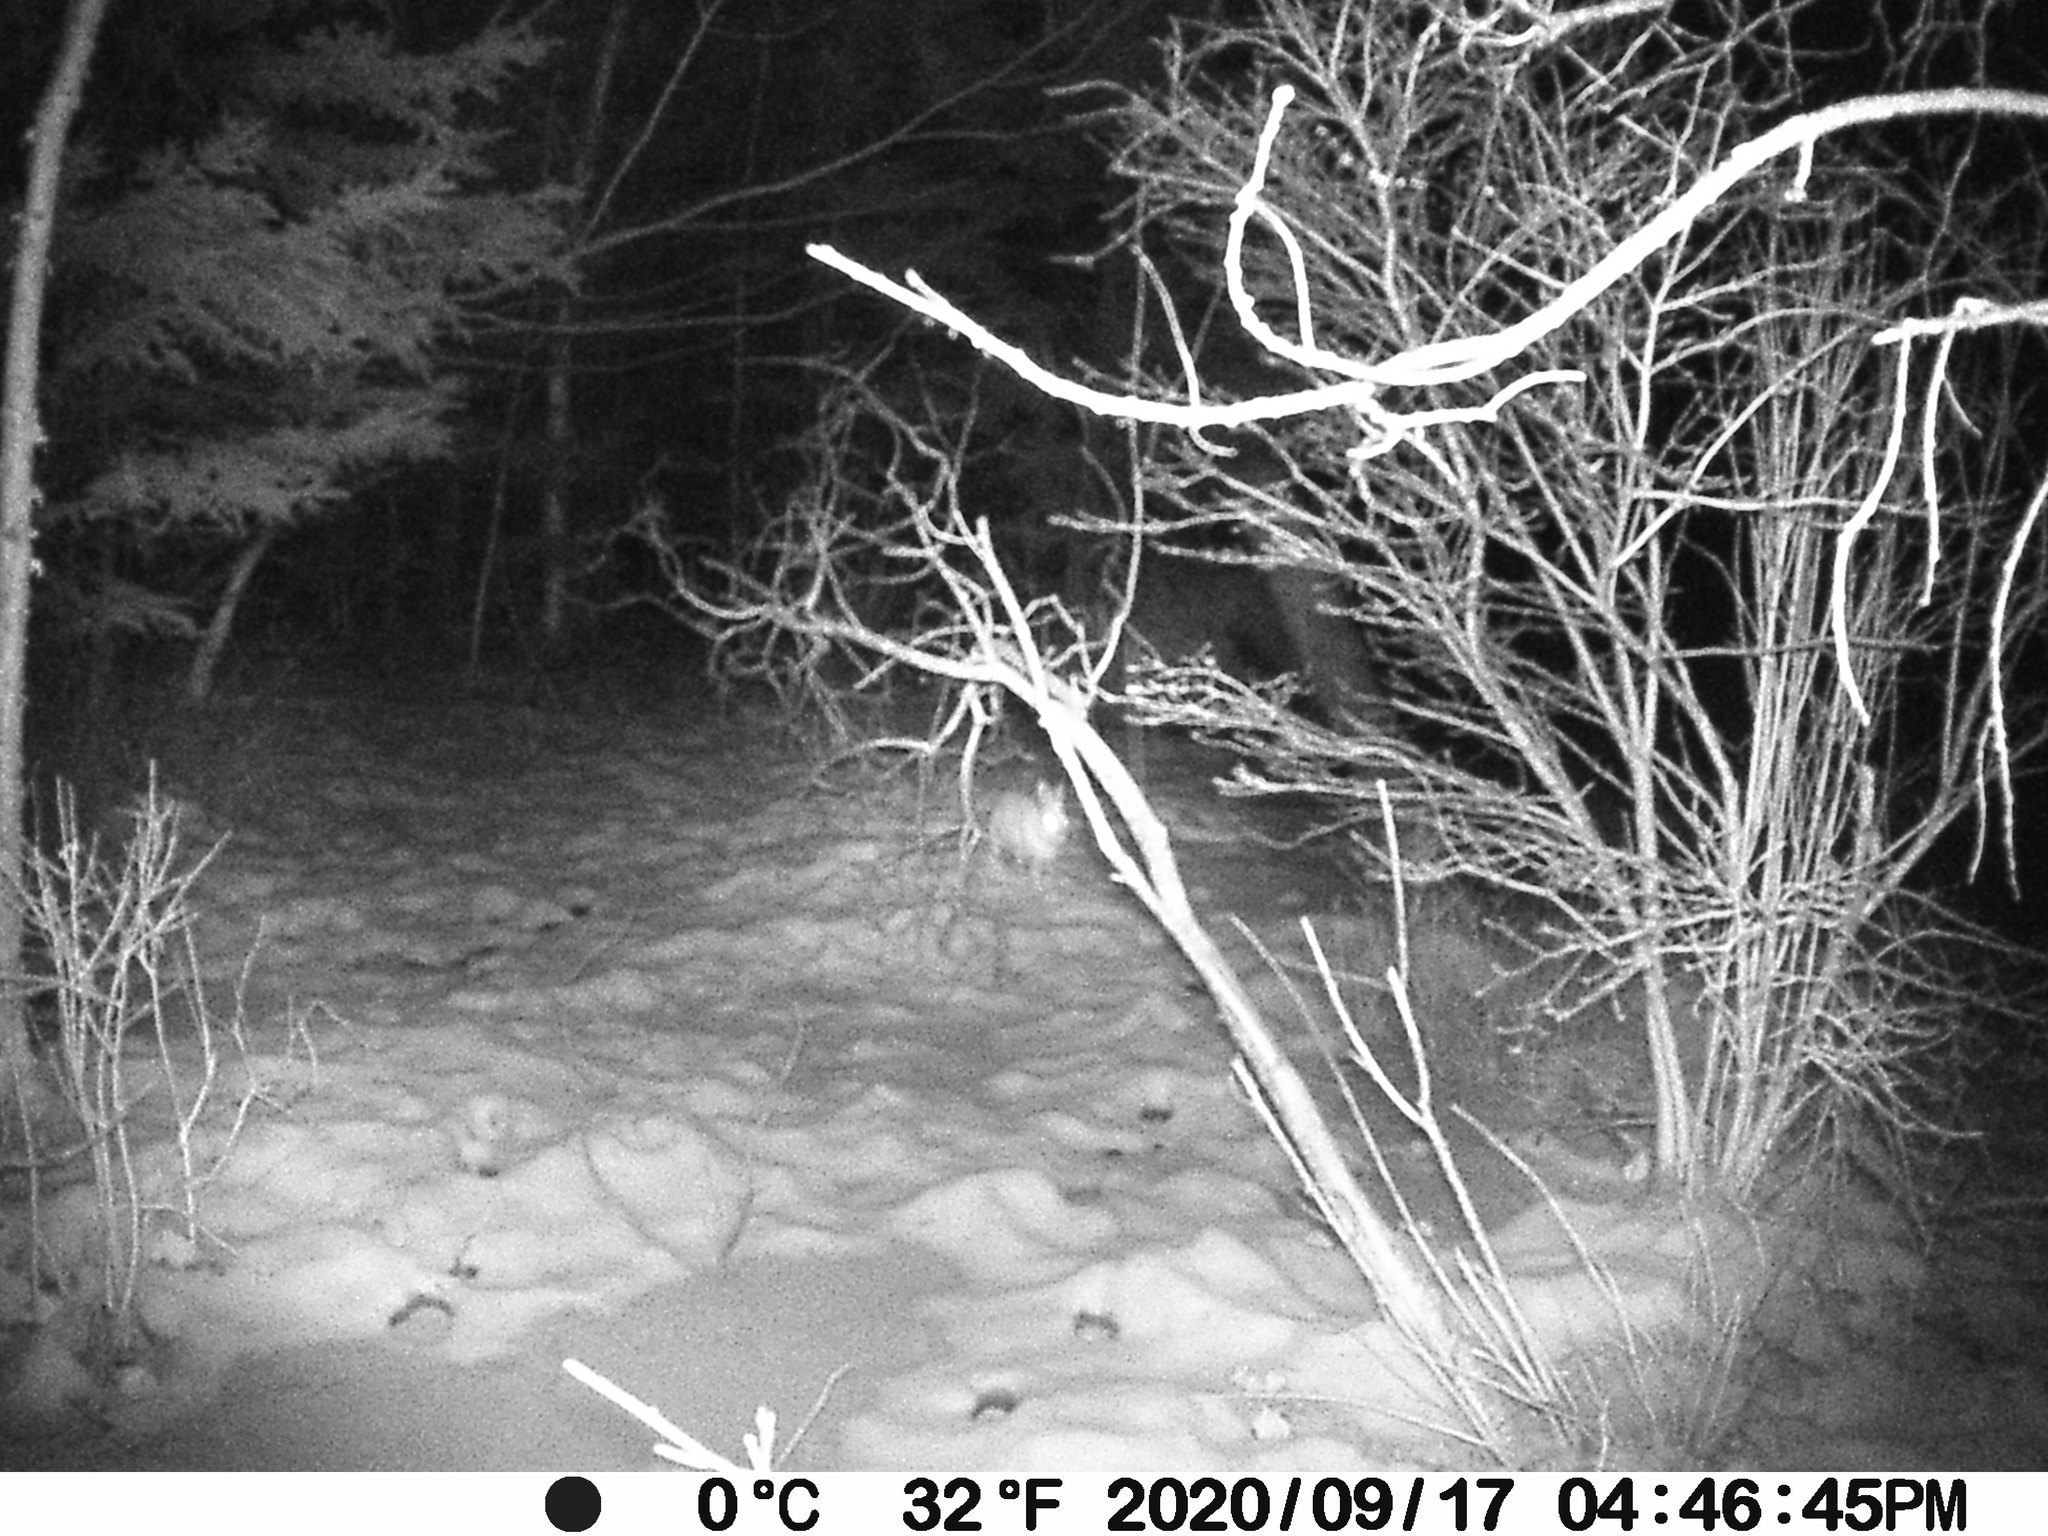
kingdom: Animalia
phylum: Chordata
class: Mammalia
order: Lagomorpha
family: Leporidae
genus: Lepus
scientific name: Lepus americanus
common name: Snowshoe hare
